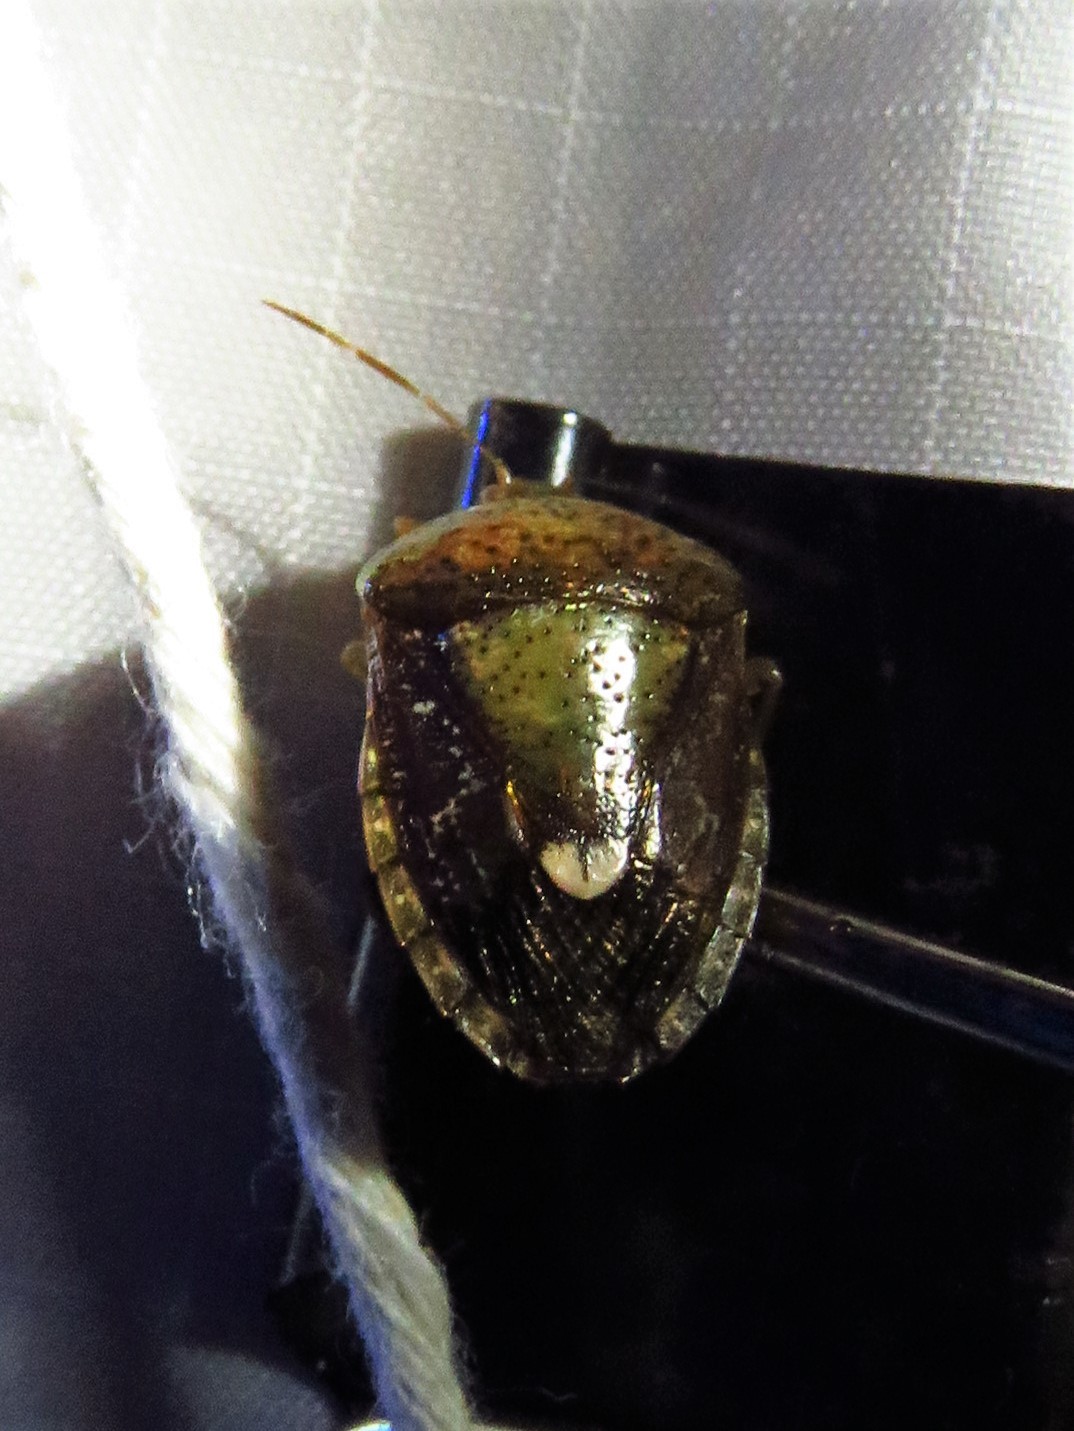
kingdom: Animalia
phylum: Arthropoda
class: Insecta
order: Hemiptera
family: Pentatomidae
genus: Edessa
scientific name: Edessa bifida
